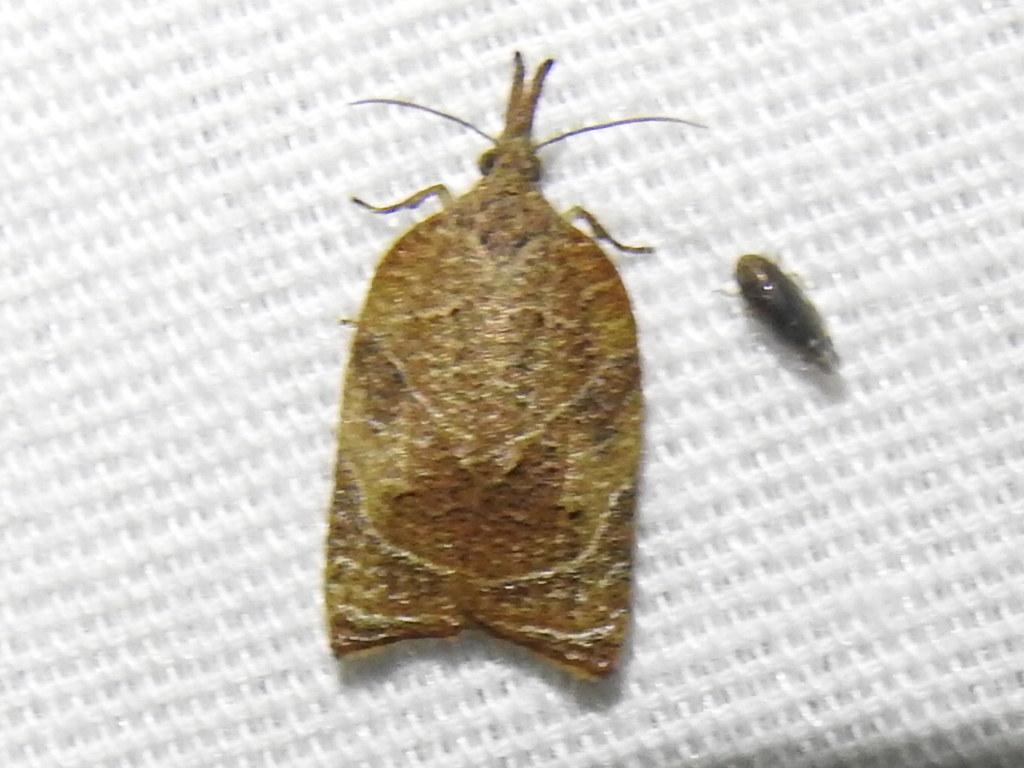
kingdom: Animalia
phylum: Arthropoda
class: Insecta
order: Lepidoptera
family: Tortricidae
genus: Platynota
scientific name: Platynota rostrana
